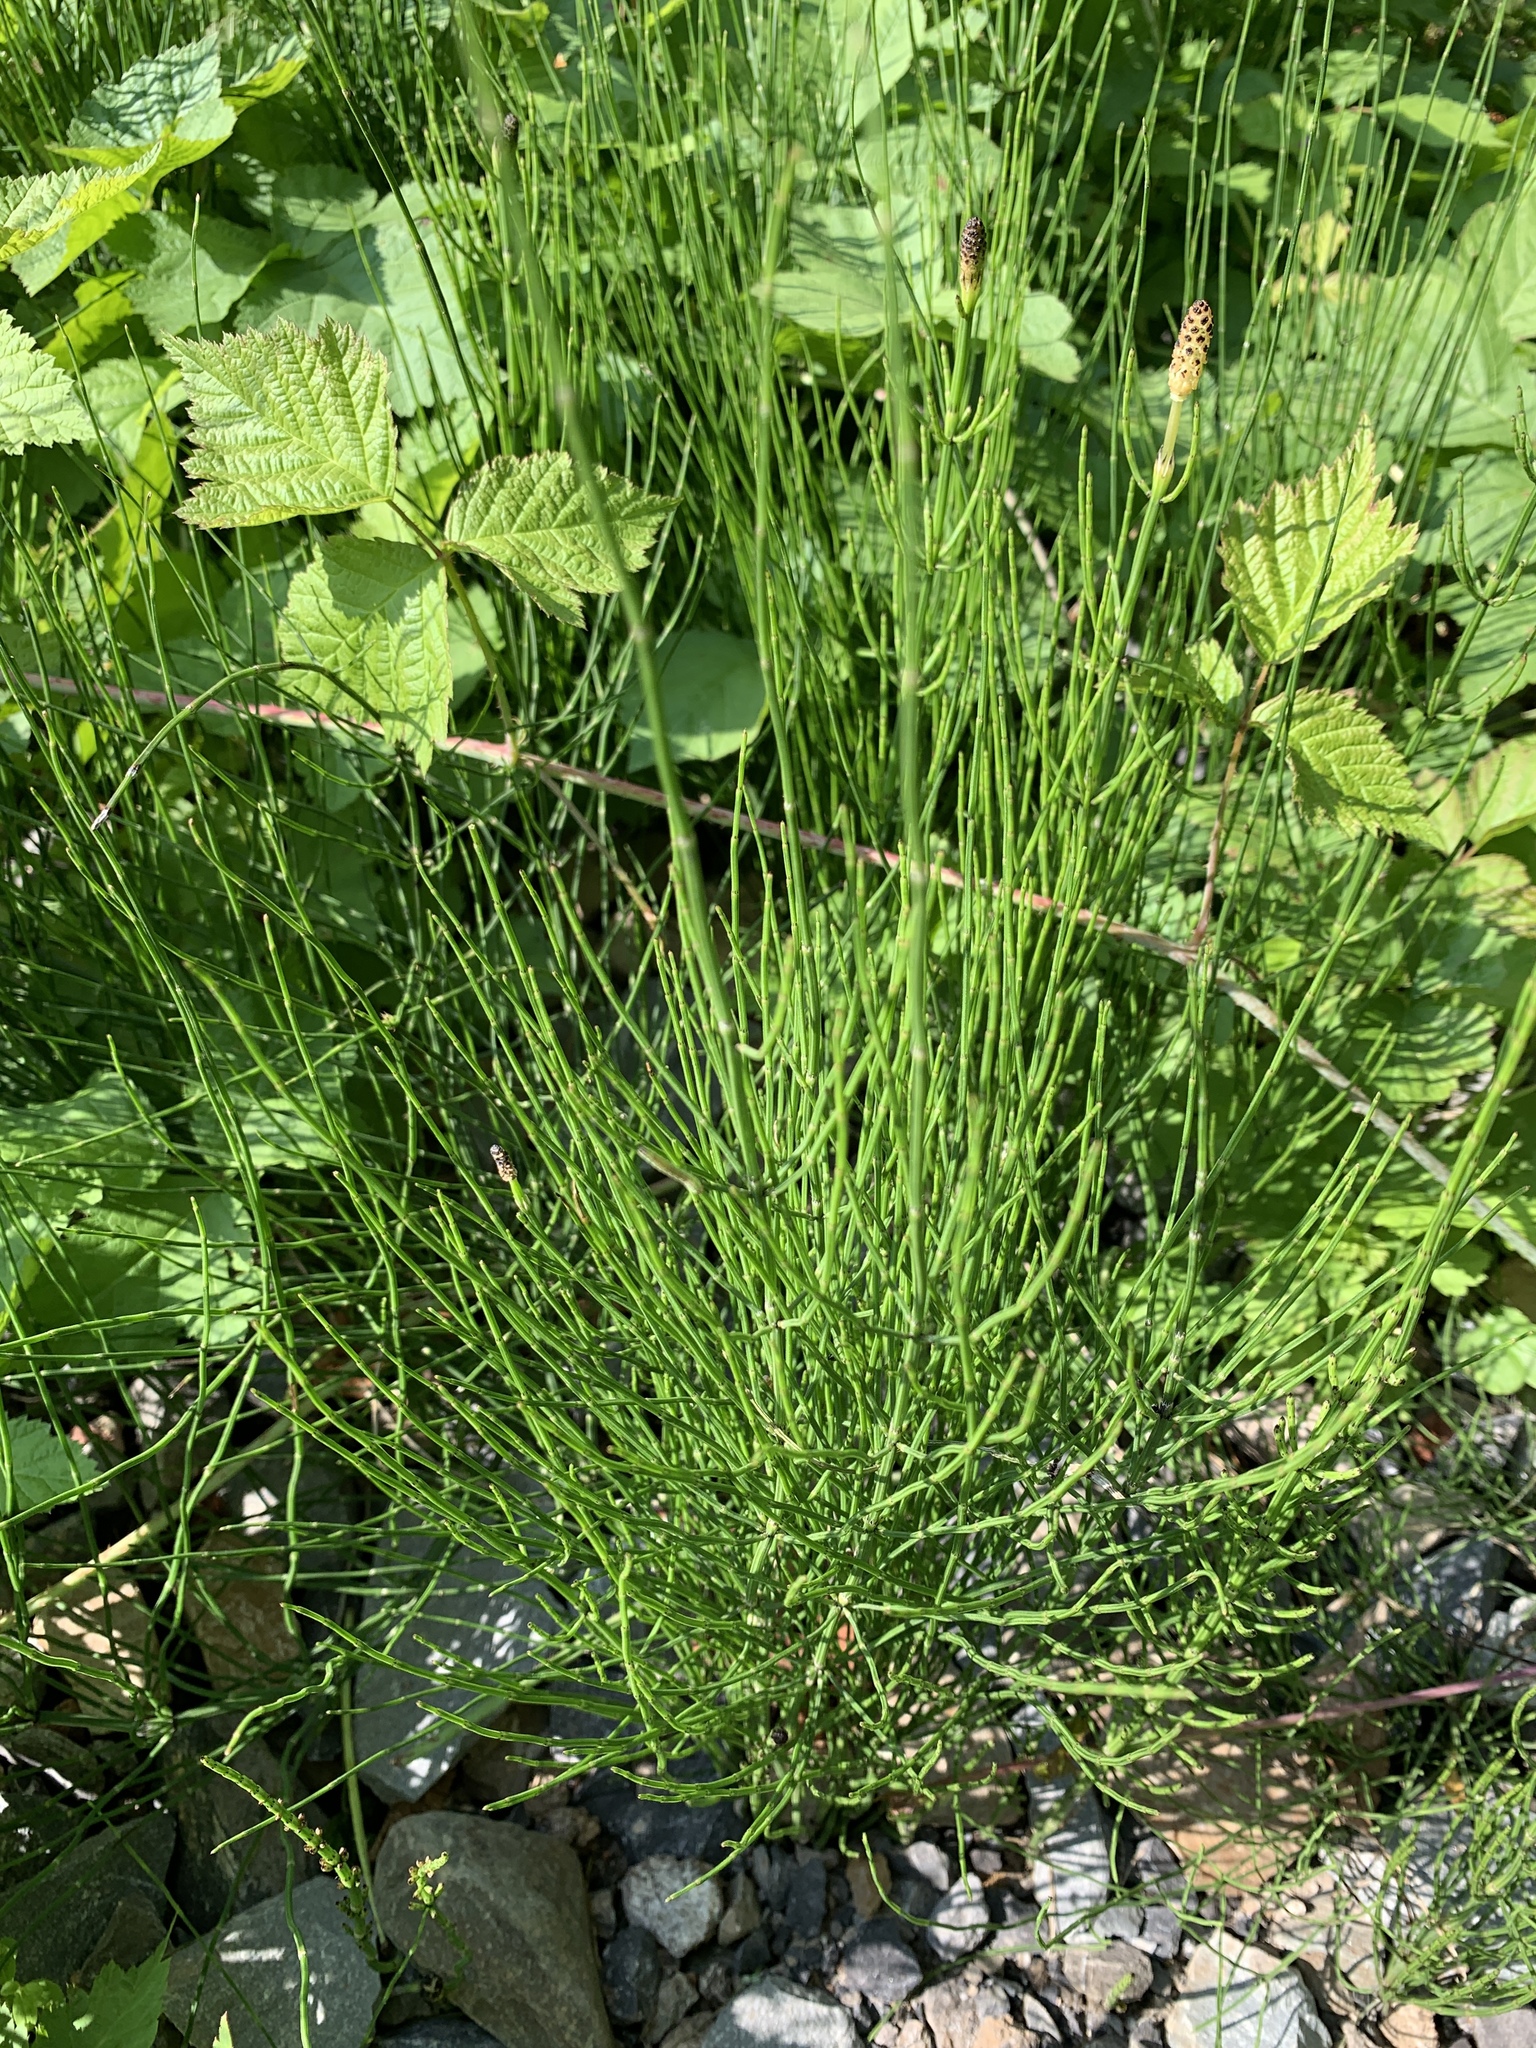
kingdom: Plantae
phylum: Tracheophyta
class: Polypodiopsida
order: Equisetales
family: Equisetaceae
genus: Equisetum
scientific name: Equisetum arvense
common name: Field horsetail
